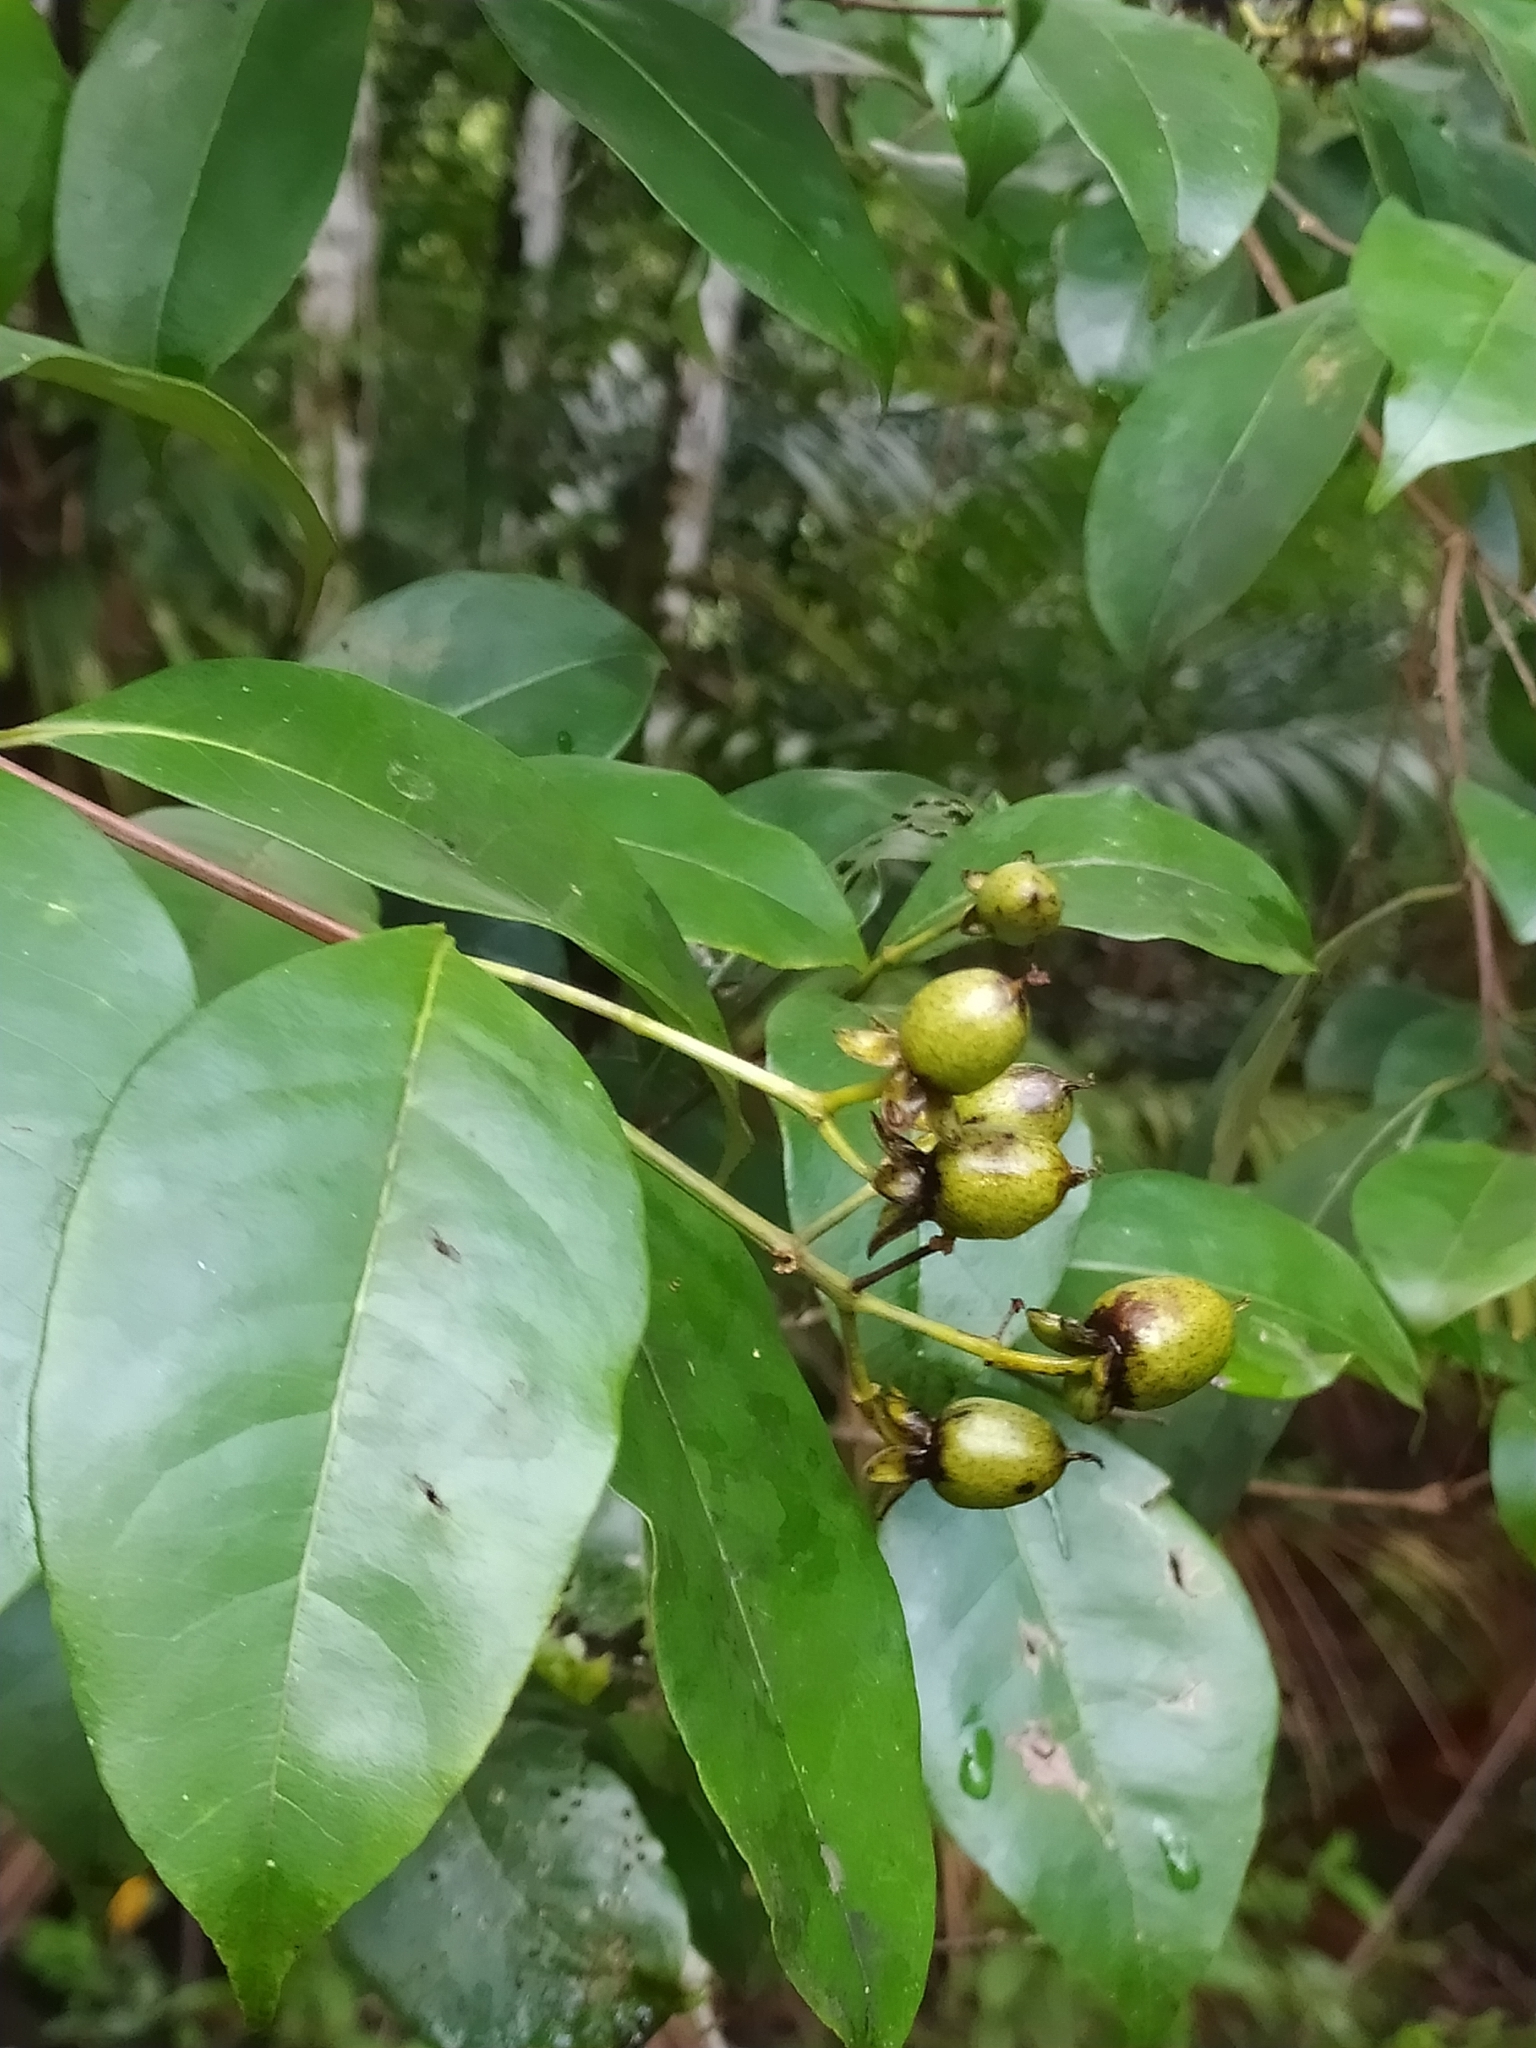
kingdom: Plantae
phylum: Tracheophyta
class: Magnoliopsida
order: Malpighiales
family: Hypericaceae
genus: Vismia
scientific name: Vismia cayennensis
